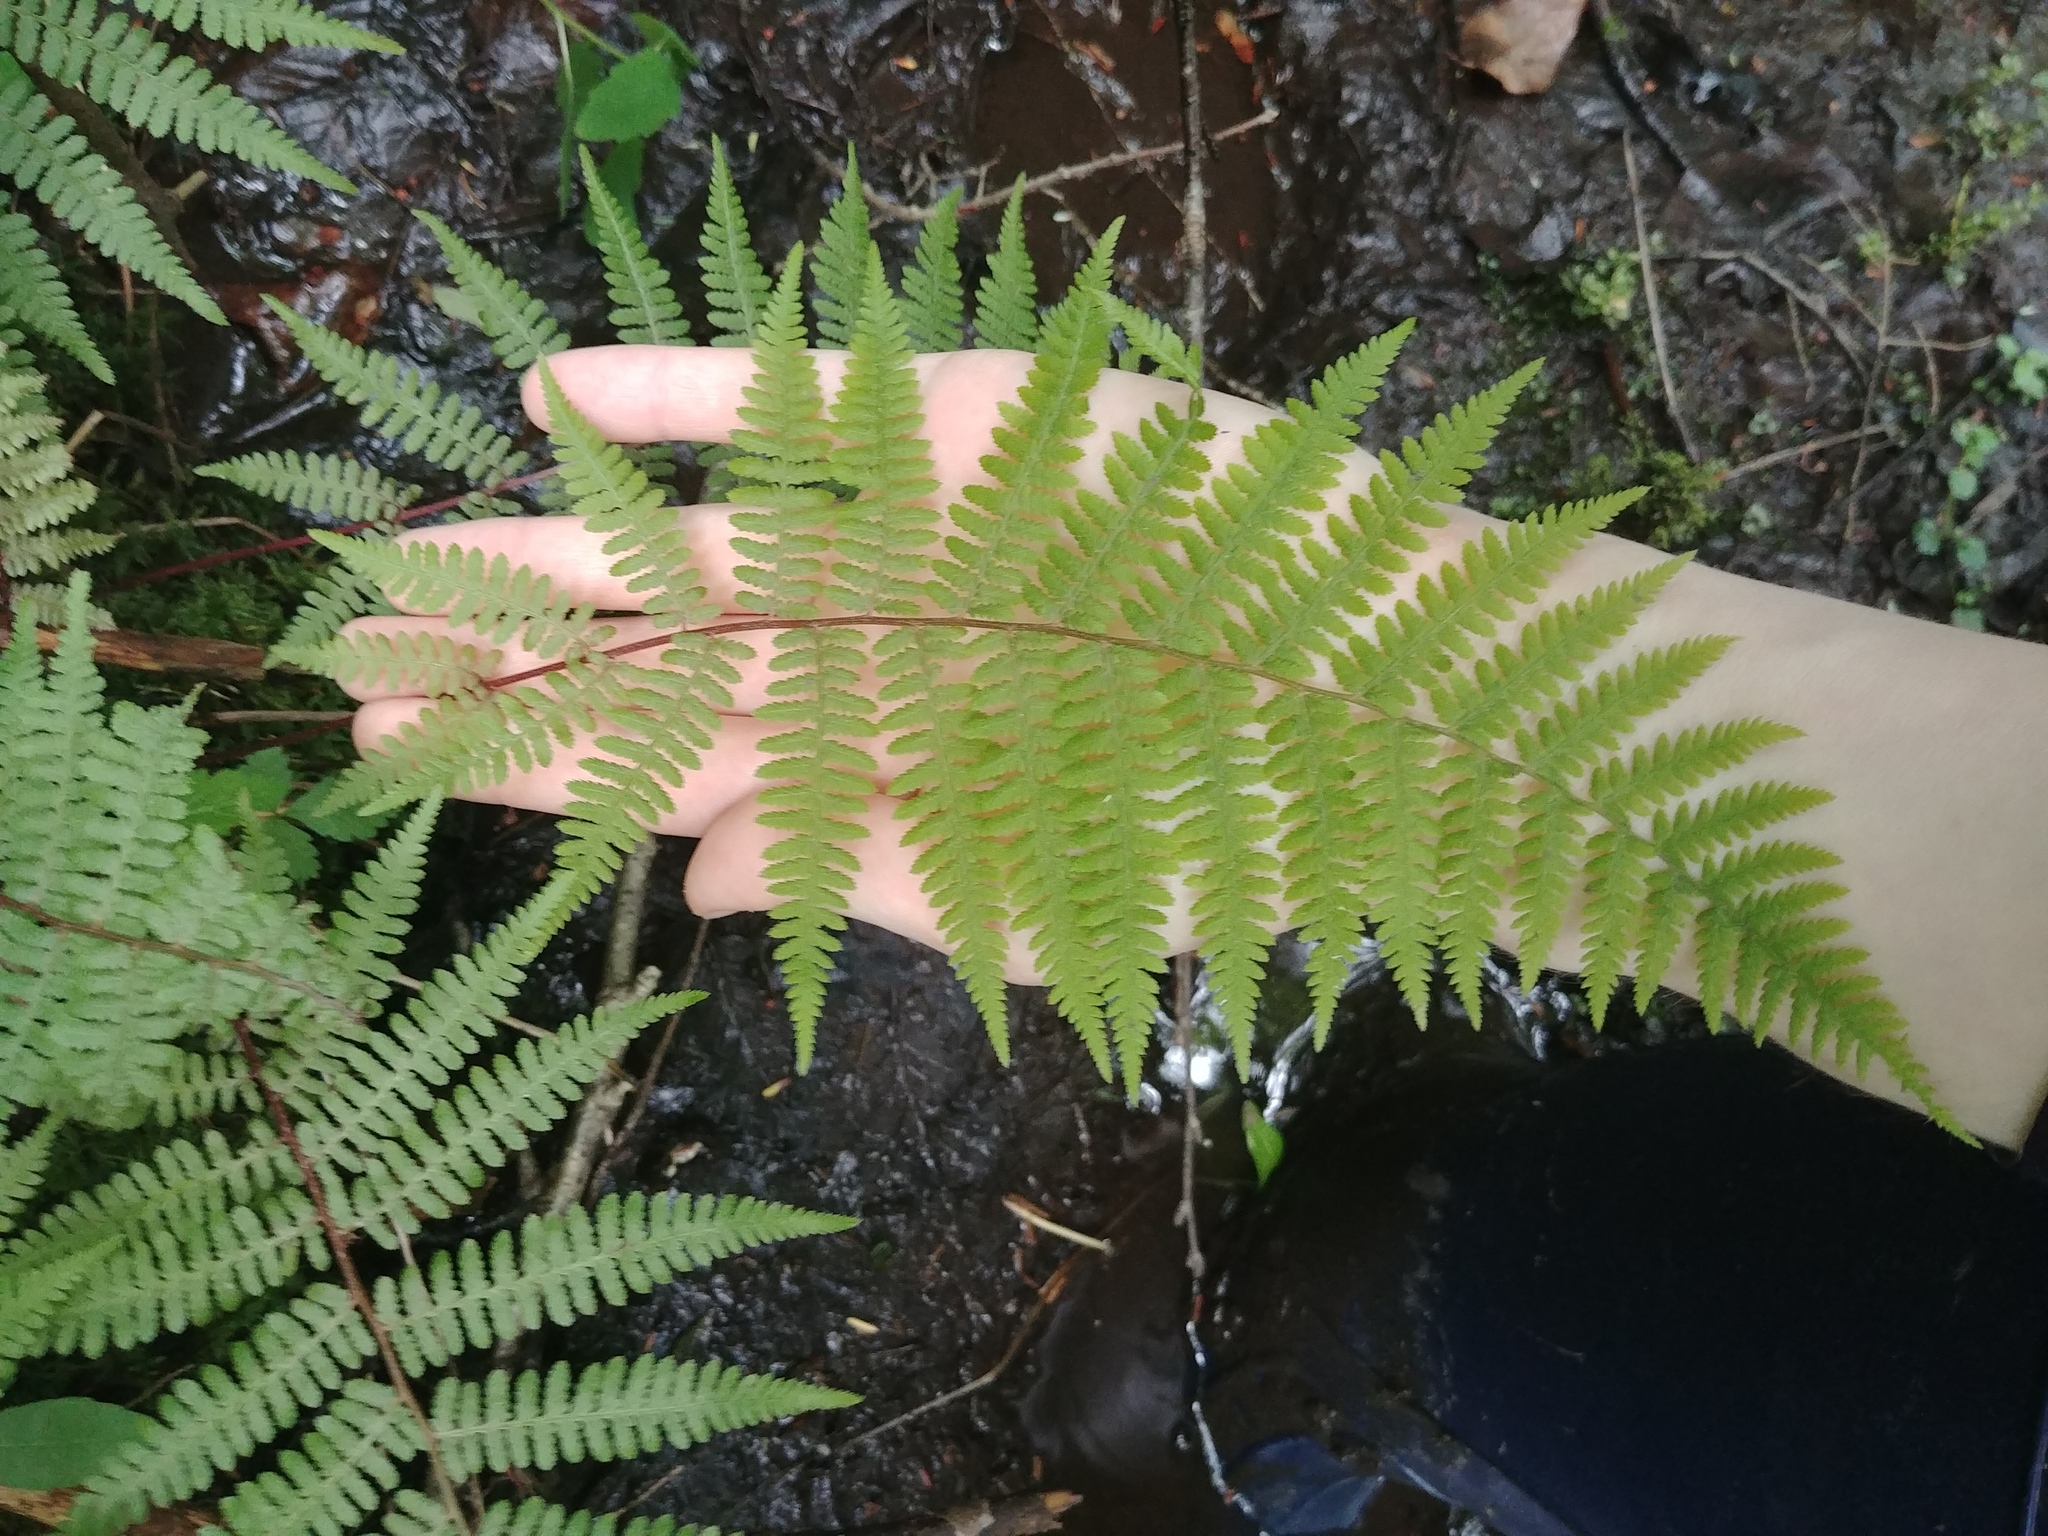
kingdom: Plantae
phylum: Tracheophyta
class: Polypodiopsida
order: Polypodiales
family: Athyriaceae
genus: Athyrium
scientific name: Athyrium angustum
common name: Northern lady fern
